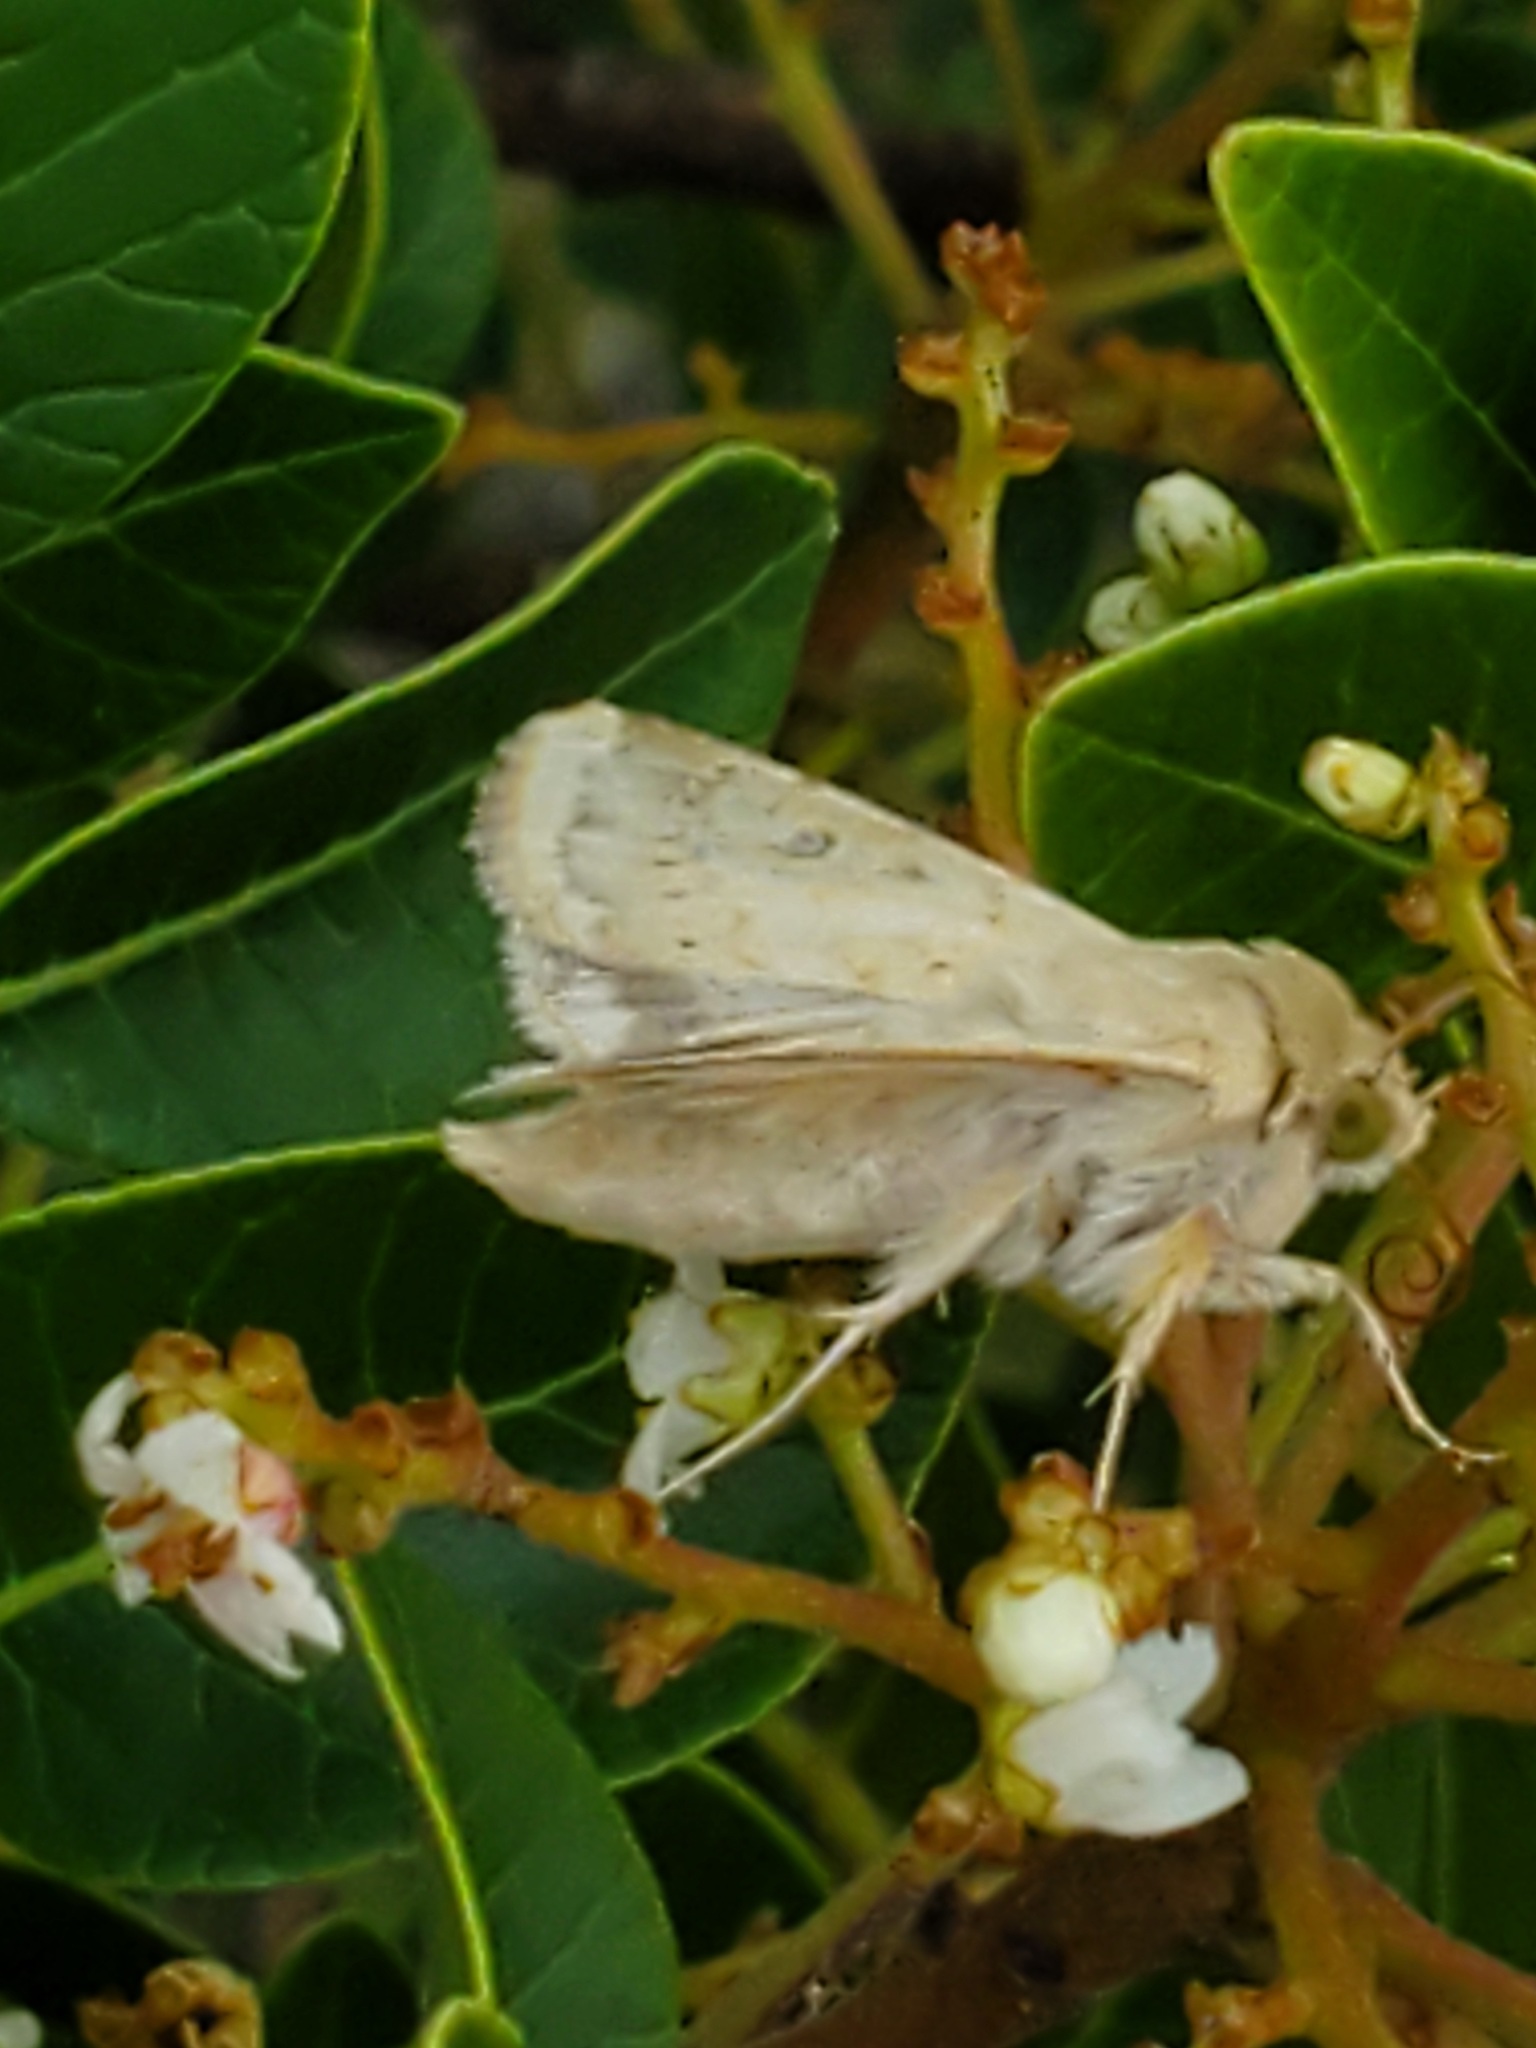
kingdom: Animalia
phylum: Arthropoda
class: Insecta
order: Lepidoptera
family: Noctuidae
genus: Helicoverpa
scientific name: Helicoverpa zea
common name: Bollworm
